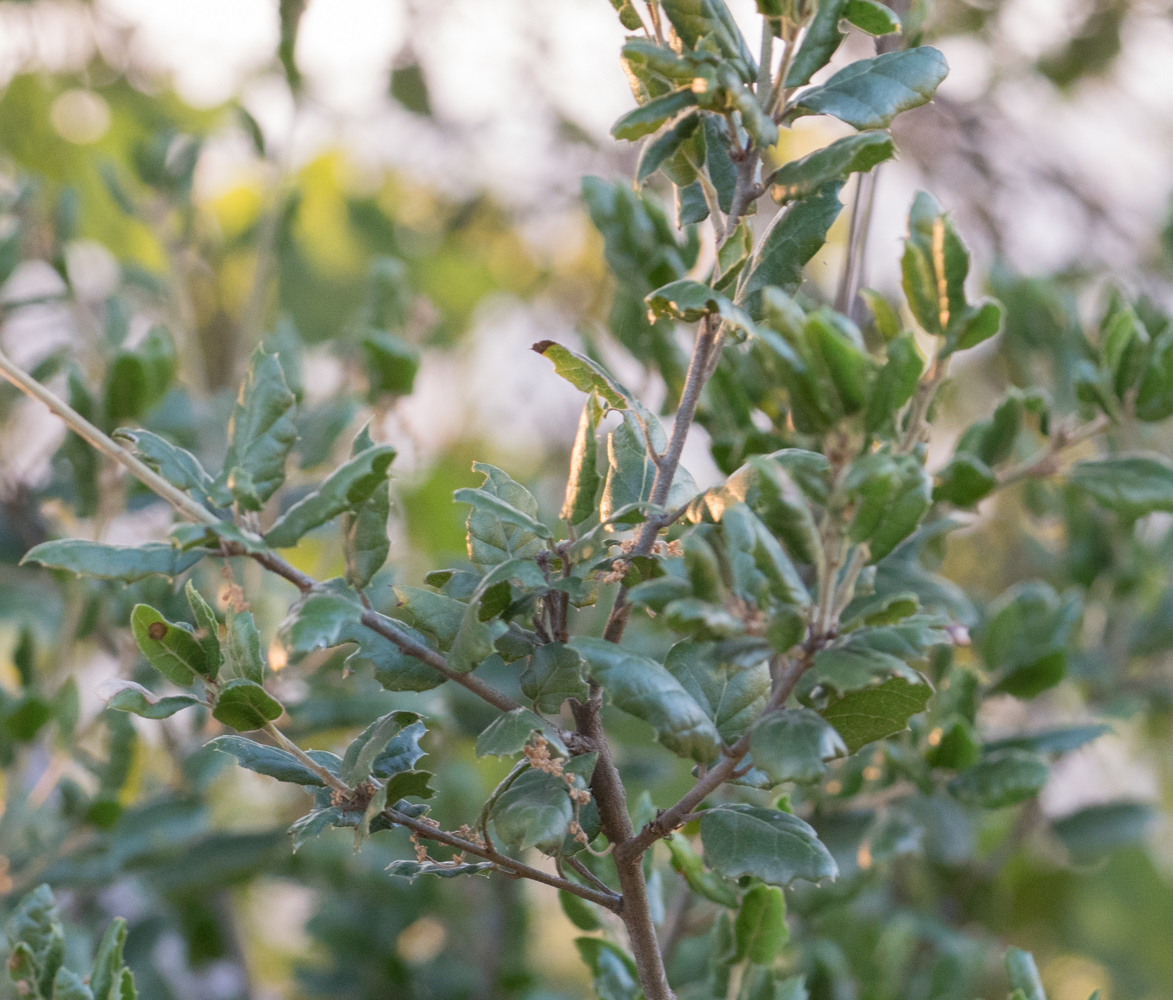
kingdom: Plantae
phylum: Tracheophyta
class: Magnoliopsida
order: Fagales
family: Fagaceae
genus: Quercus
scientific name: Quercus agrifolia
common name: California live oak
